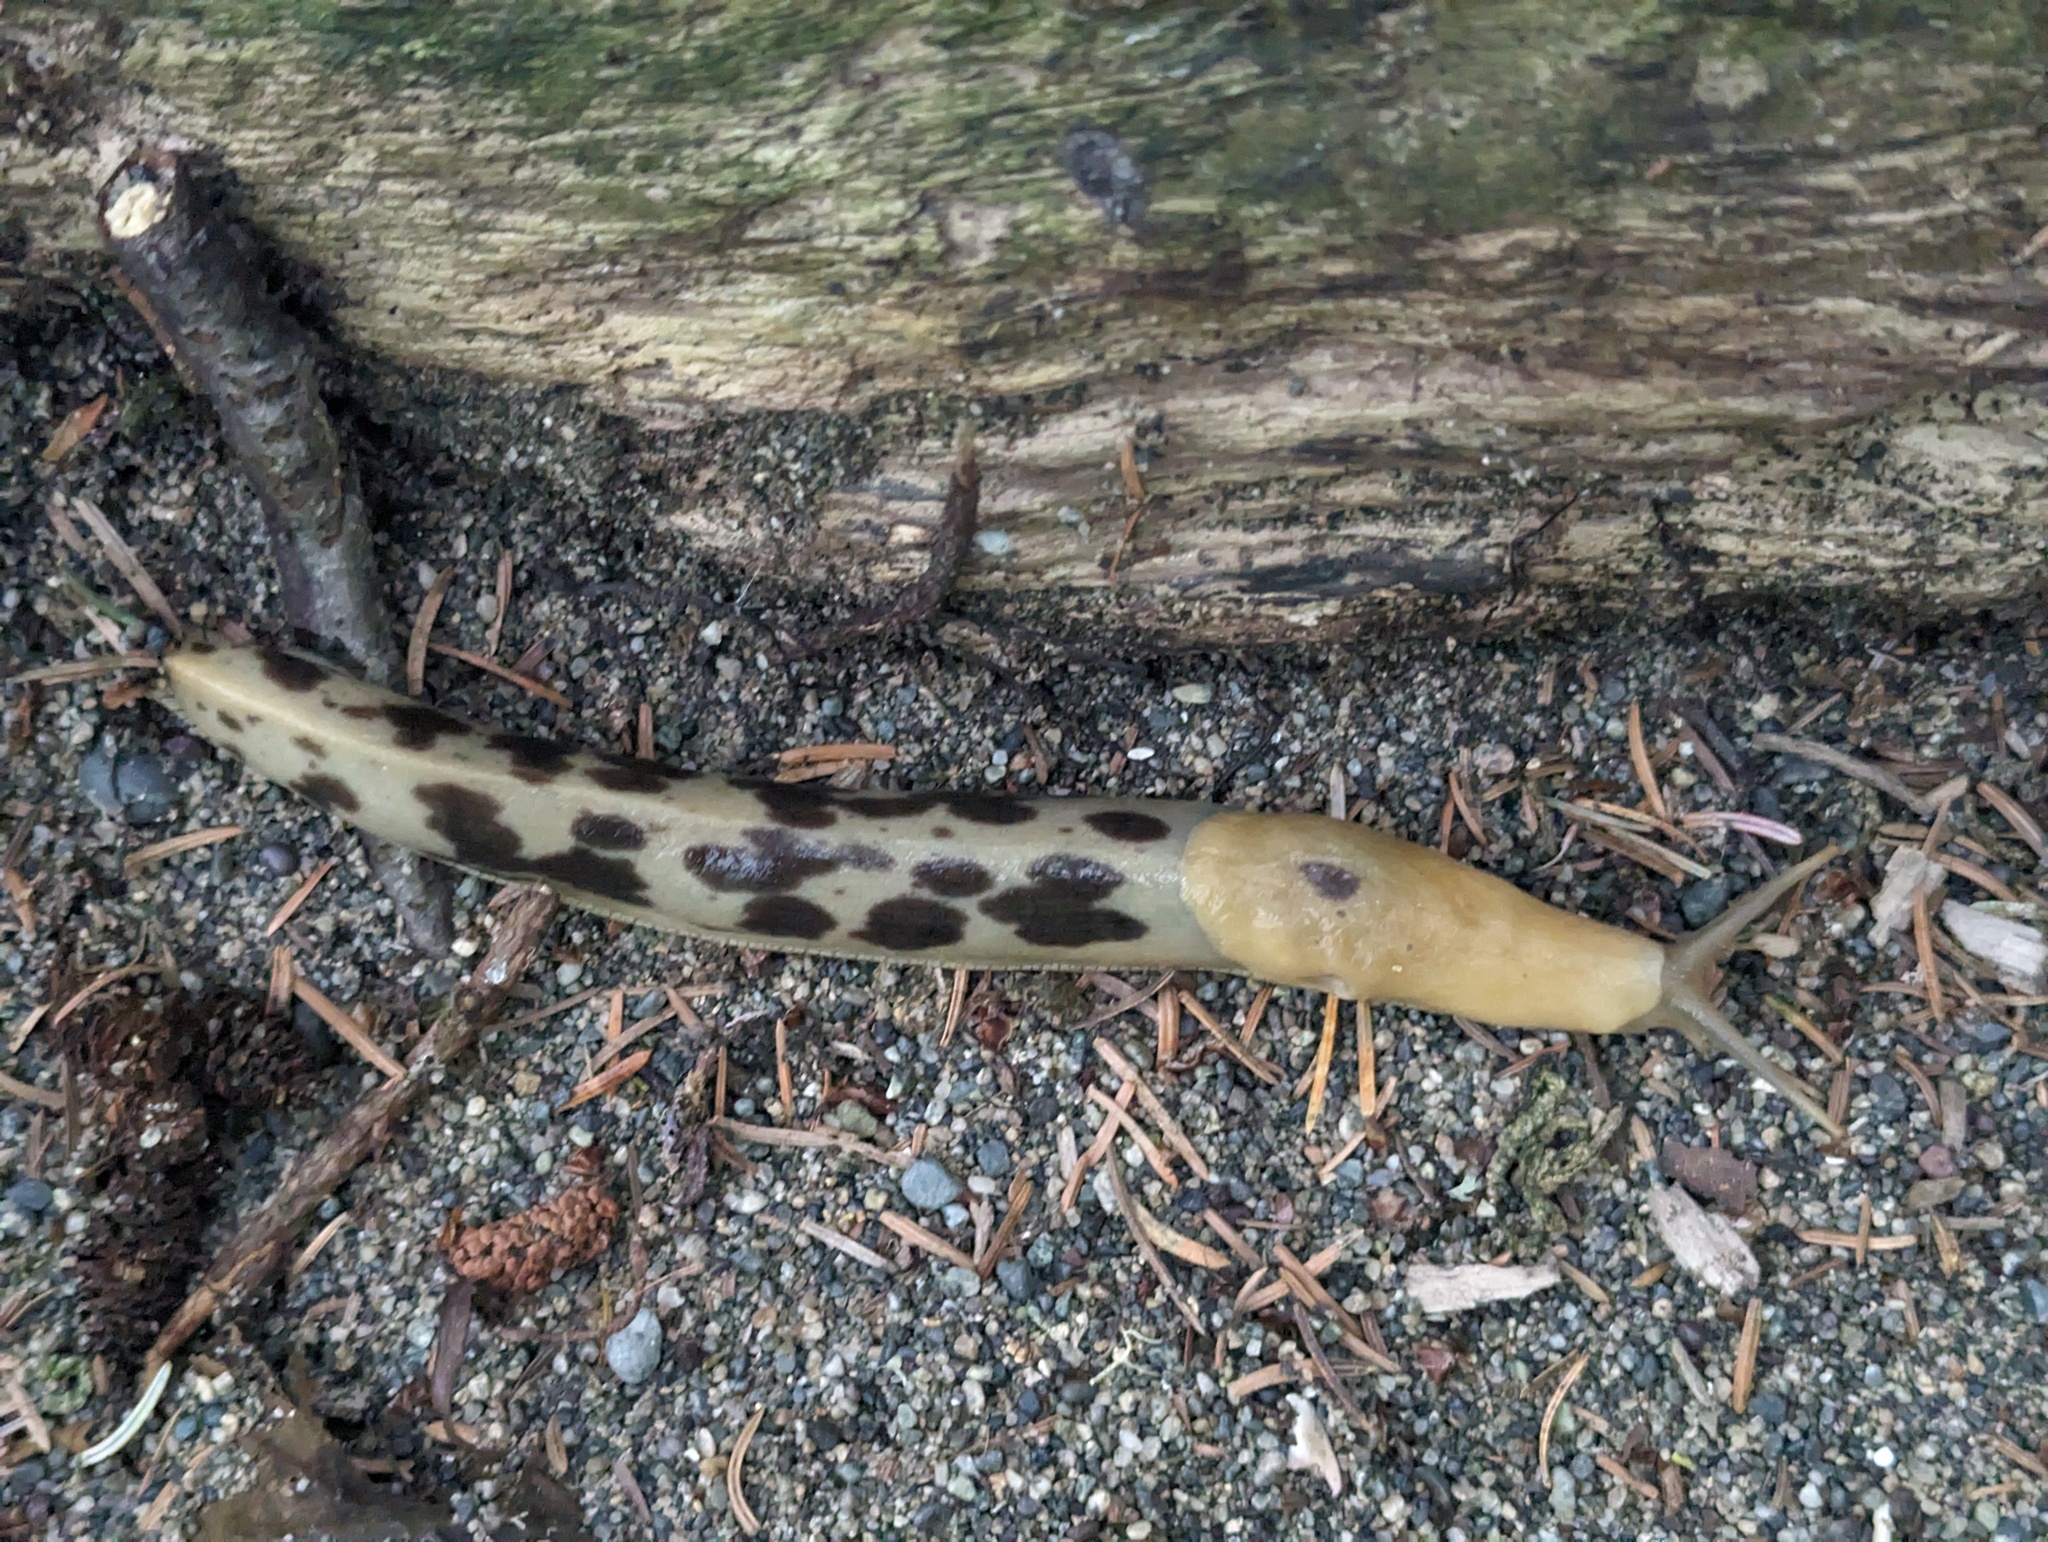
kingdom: Animalia
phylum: Mollusca
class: Gastropoda
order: Stylommatophora
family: Ariolimacidae
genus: Ariolimax
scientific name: Ariolimax columbianus
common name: Pacific banana slug
